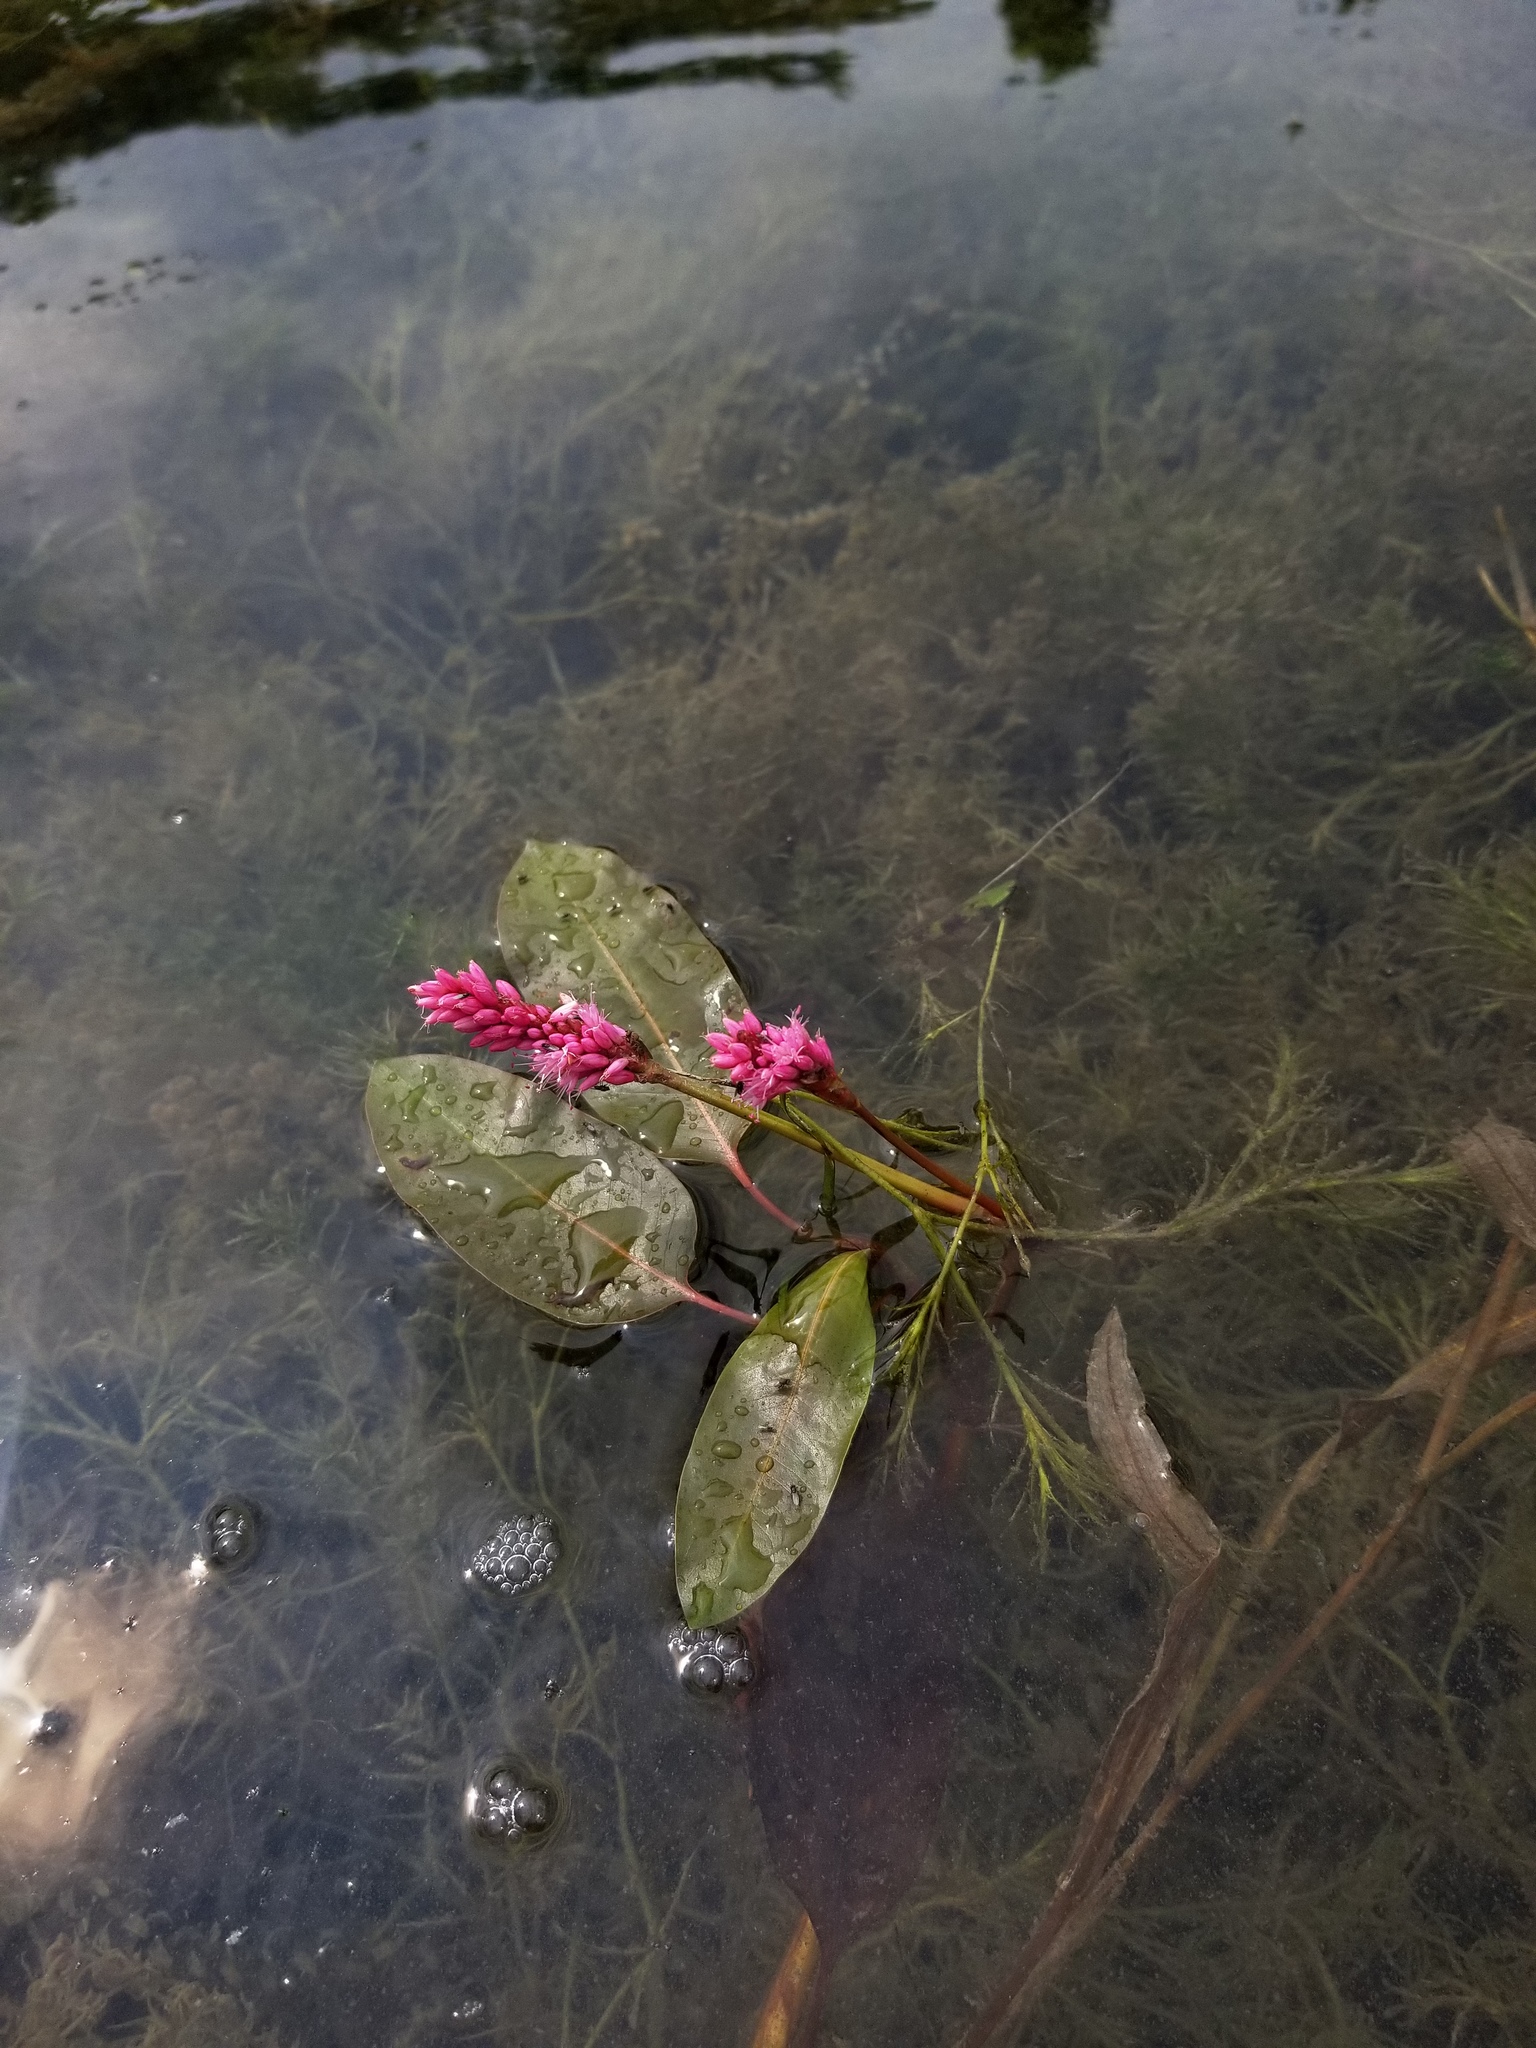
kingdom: Plantae
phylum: Tracheophyta
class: Magnoliopsida
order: Caryophyllales
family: Polygonaceae
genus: Persicaria
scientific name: Persicaria amphibia
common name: Amphibious bistort
